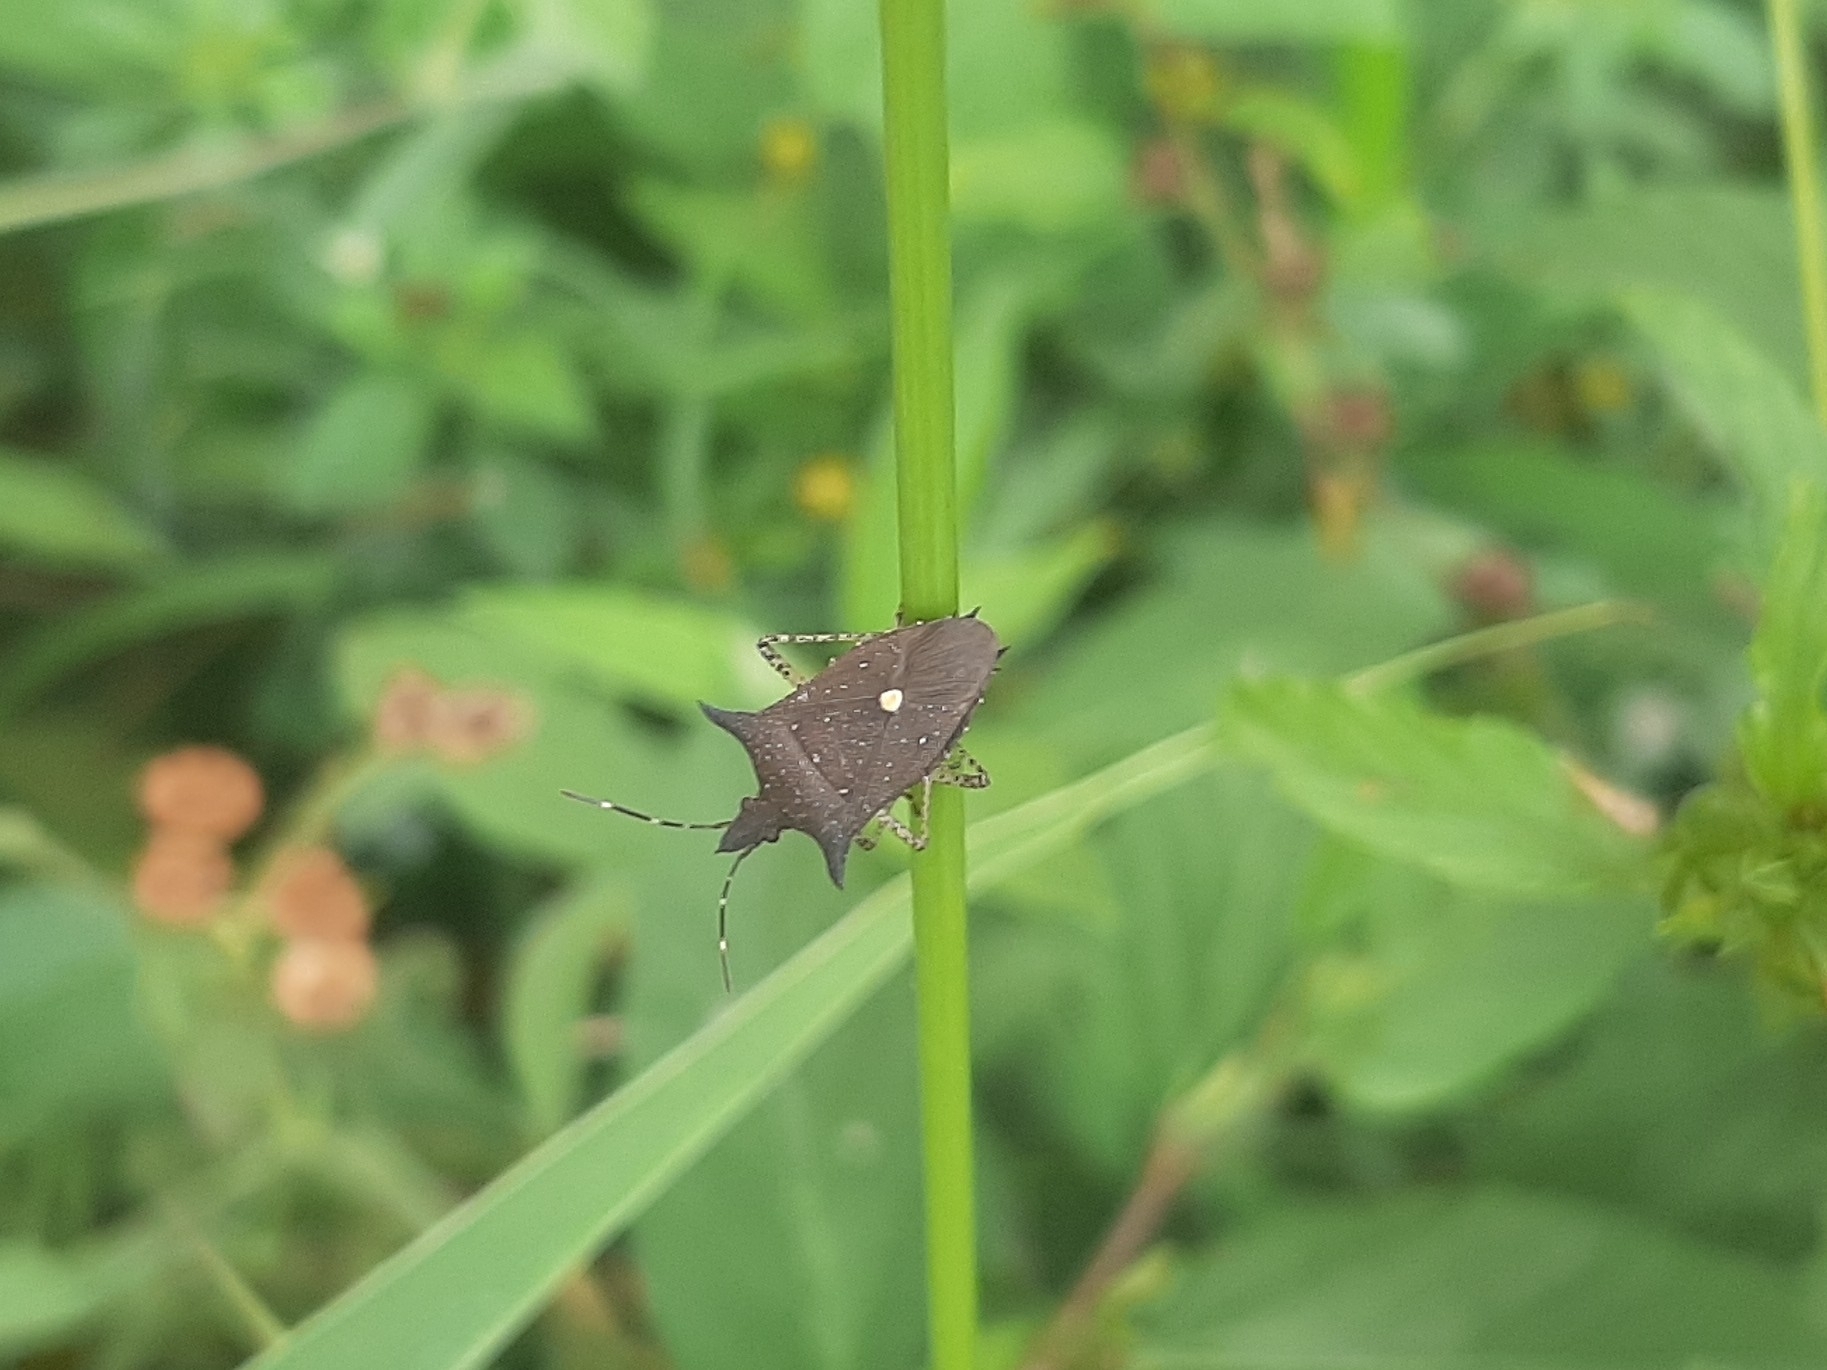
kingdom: Animalia
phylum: Arthropoda
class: Insecta
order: Hemiptera
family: Pentatomidae
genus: Proxys
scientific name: Proxys albopunctulatus
